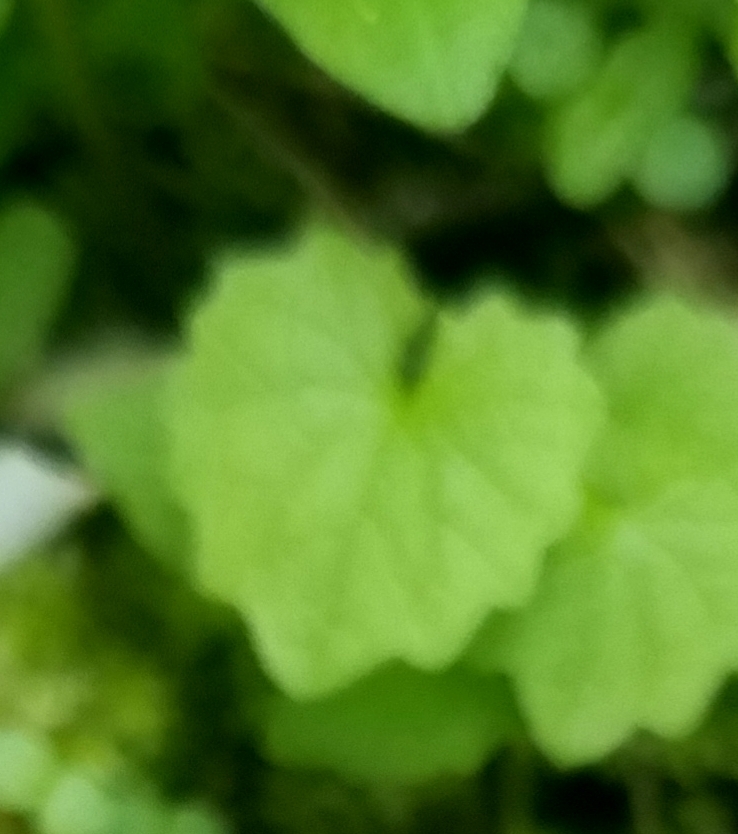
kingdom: Plantae
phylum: Tracheophyta
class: Magnoliopsida
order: Brassicales
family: Brassicaceae
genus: Alliaria
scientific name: Alliaria petiolata
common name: Garlic mustard
